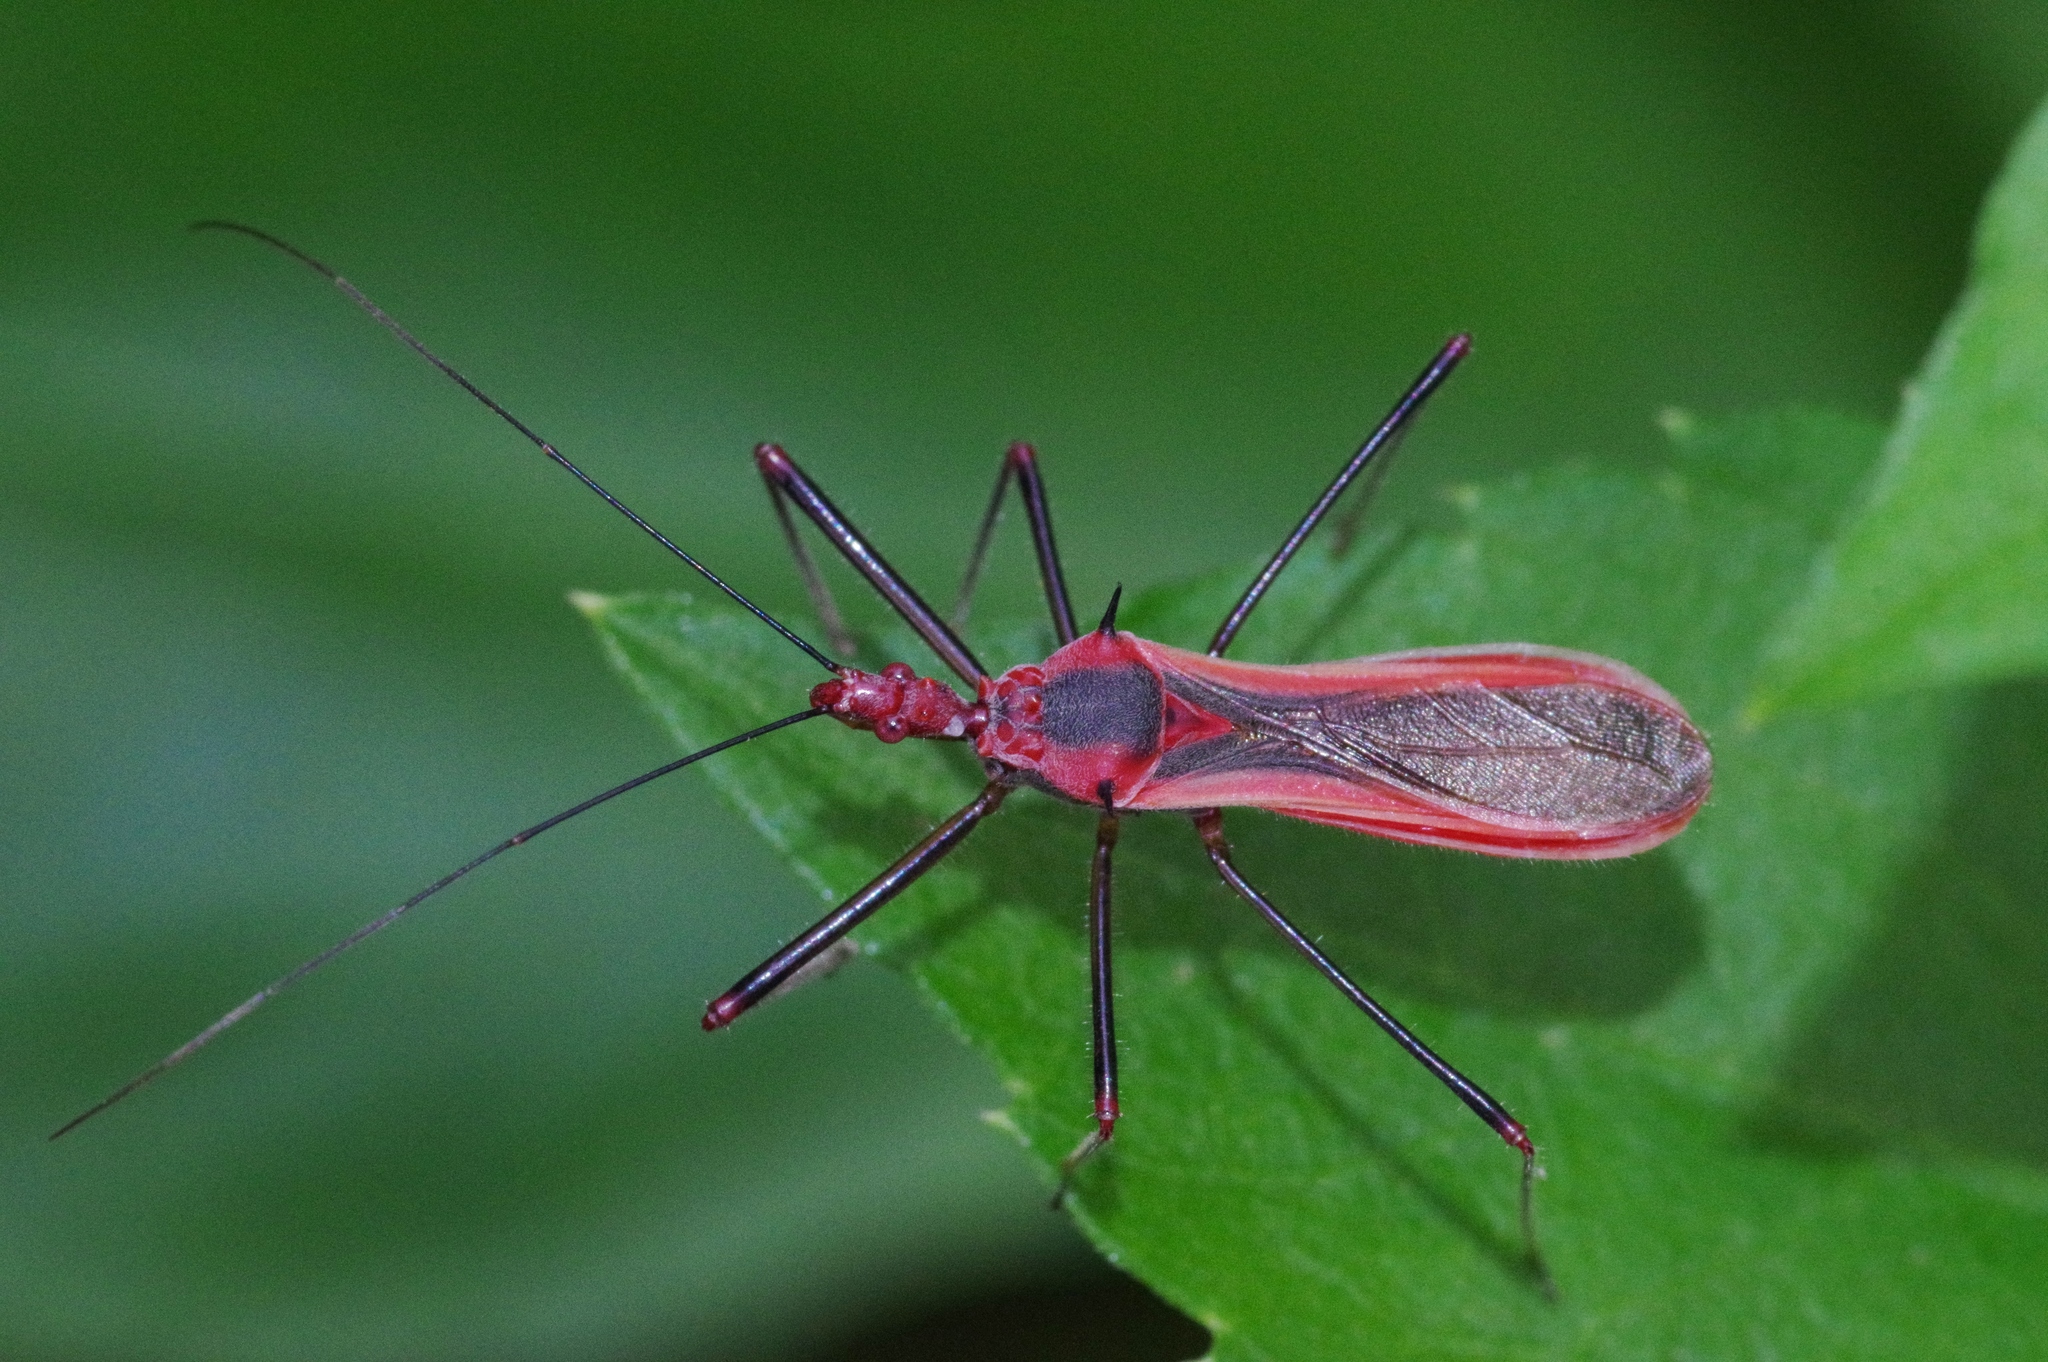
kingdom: Animalia
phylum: Arthropoda
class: Insecta
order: Hemiptera
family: Reduviidae
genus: Euagoras
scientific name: Euagoras plagiatus
